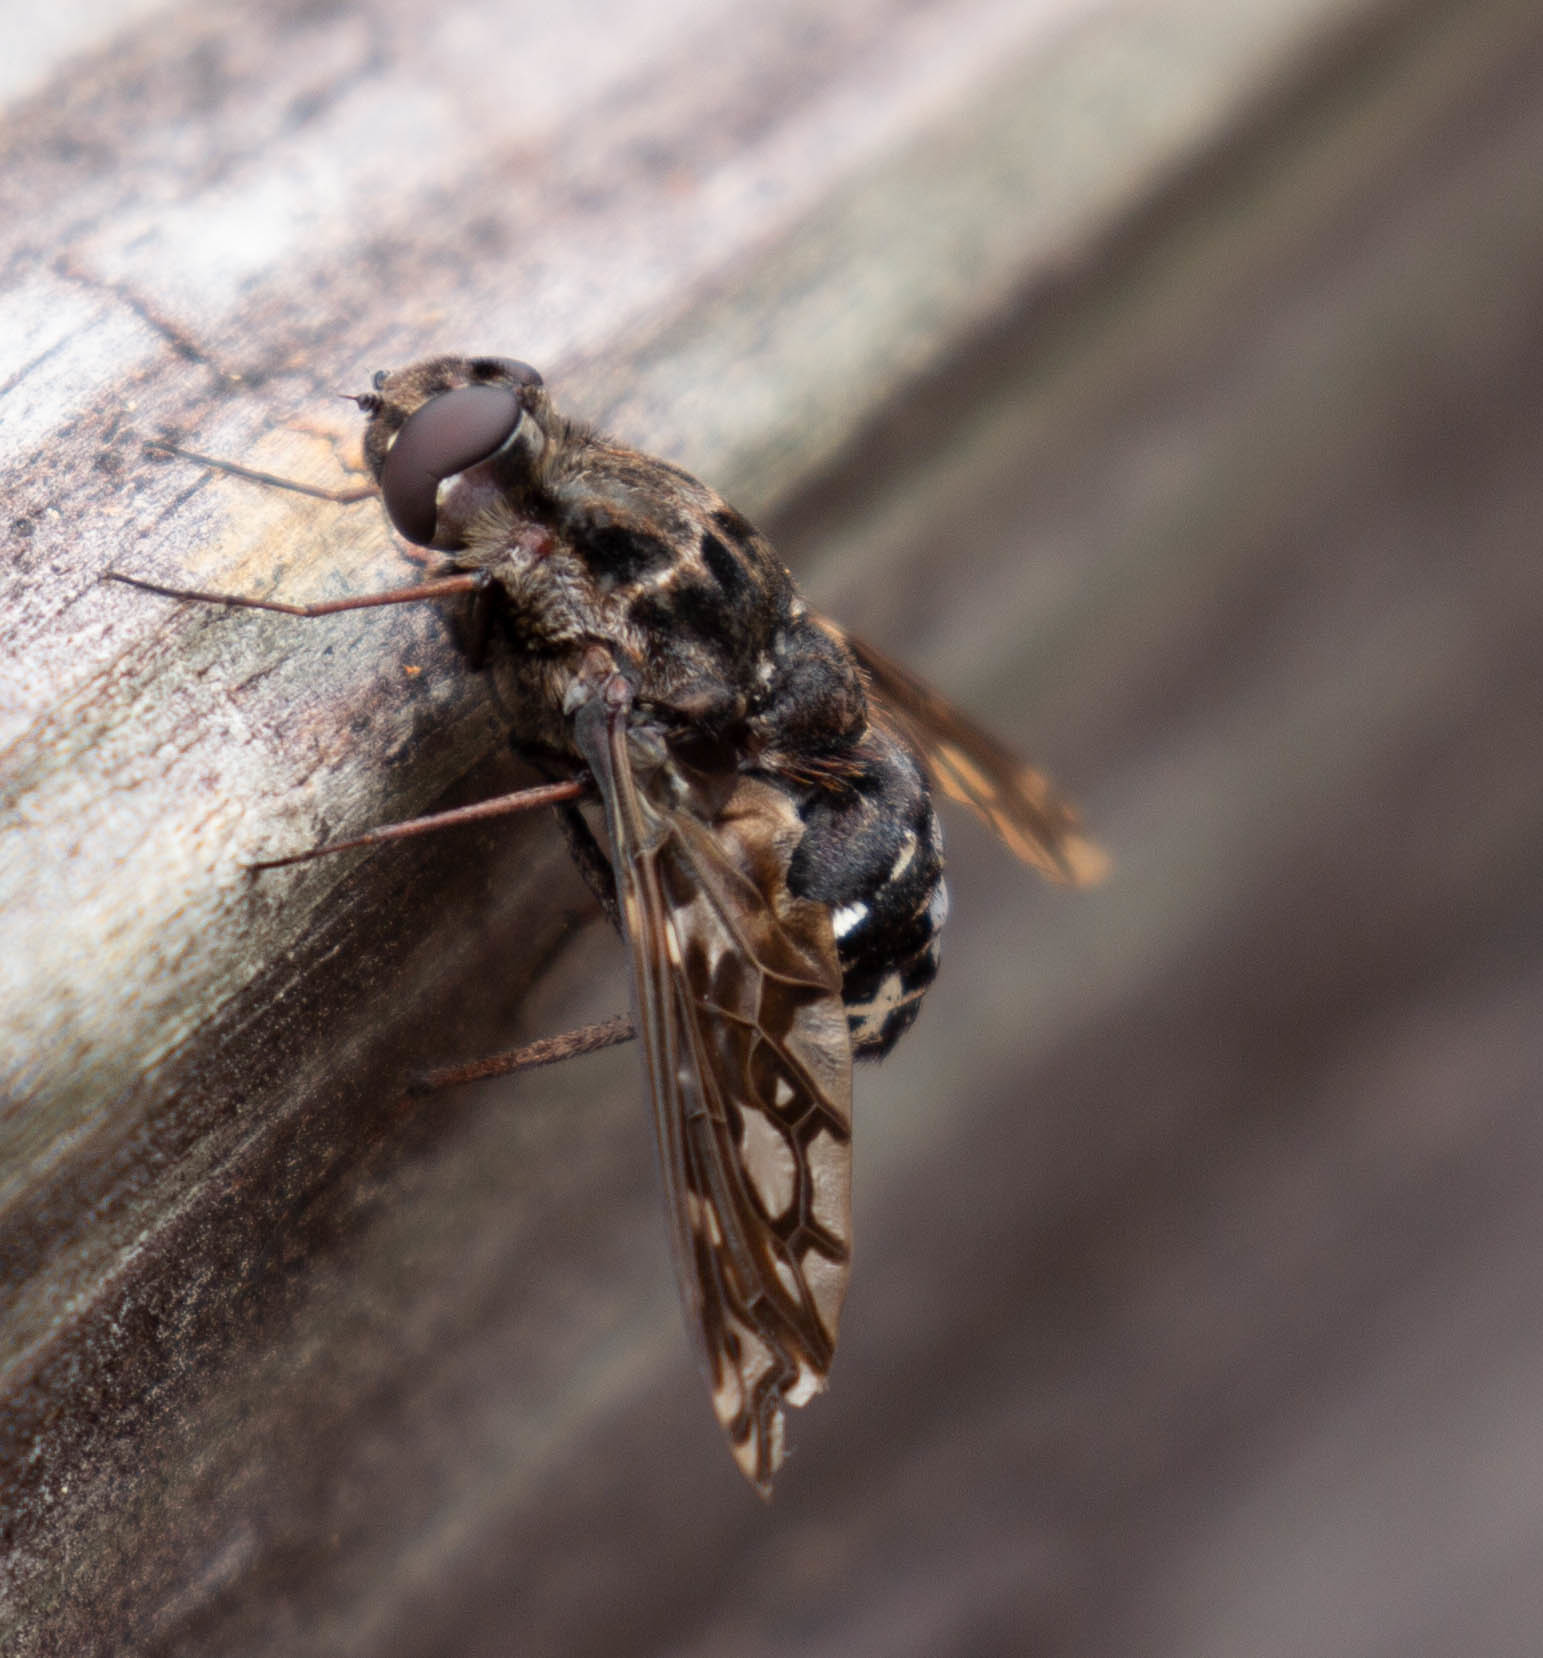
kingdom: Animalia
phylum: Arthropoda
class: Insecta
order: Diptera
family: Bombyliidae
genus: Xenox
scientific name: Xenox tigrinus
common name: Tiger bee fly
